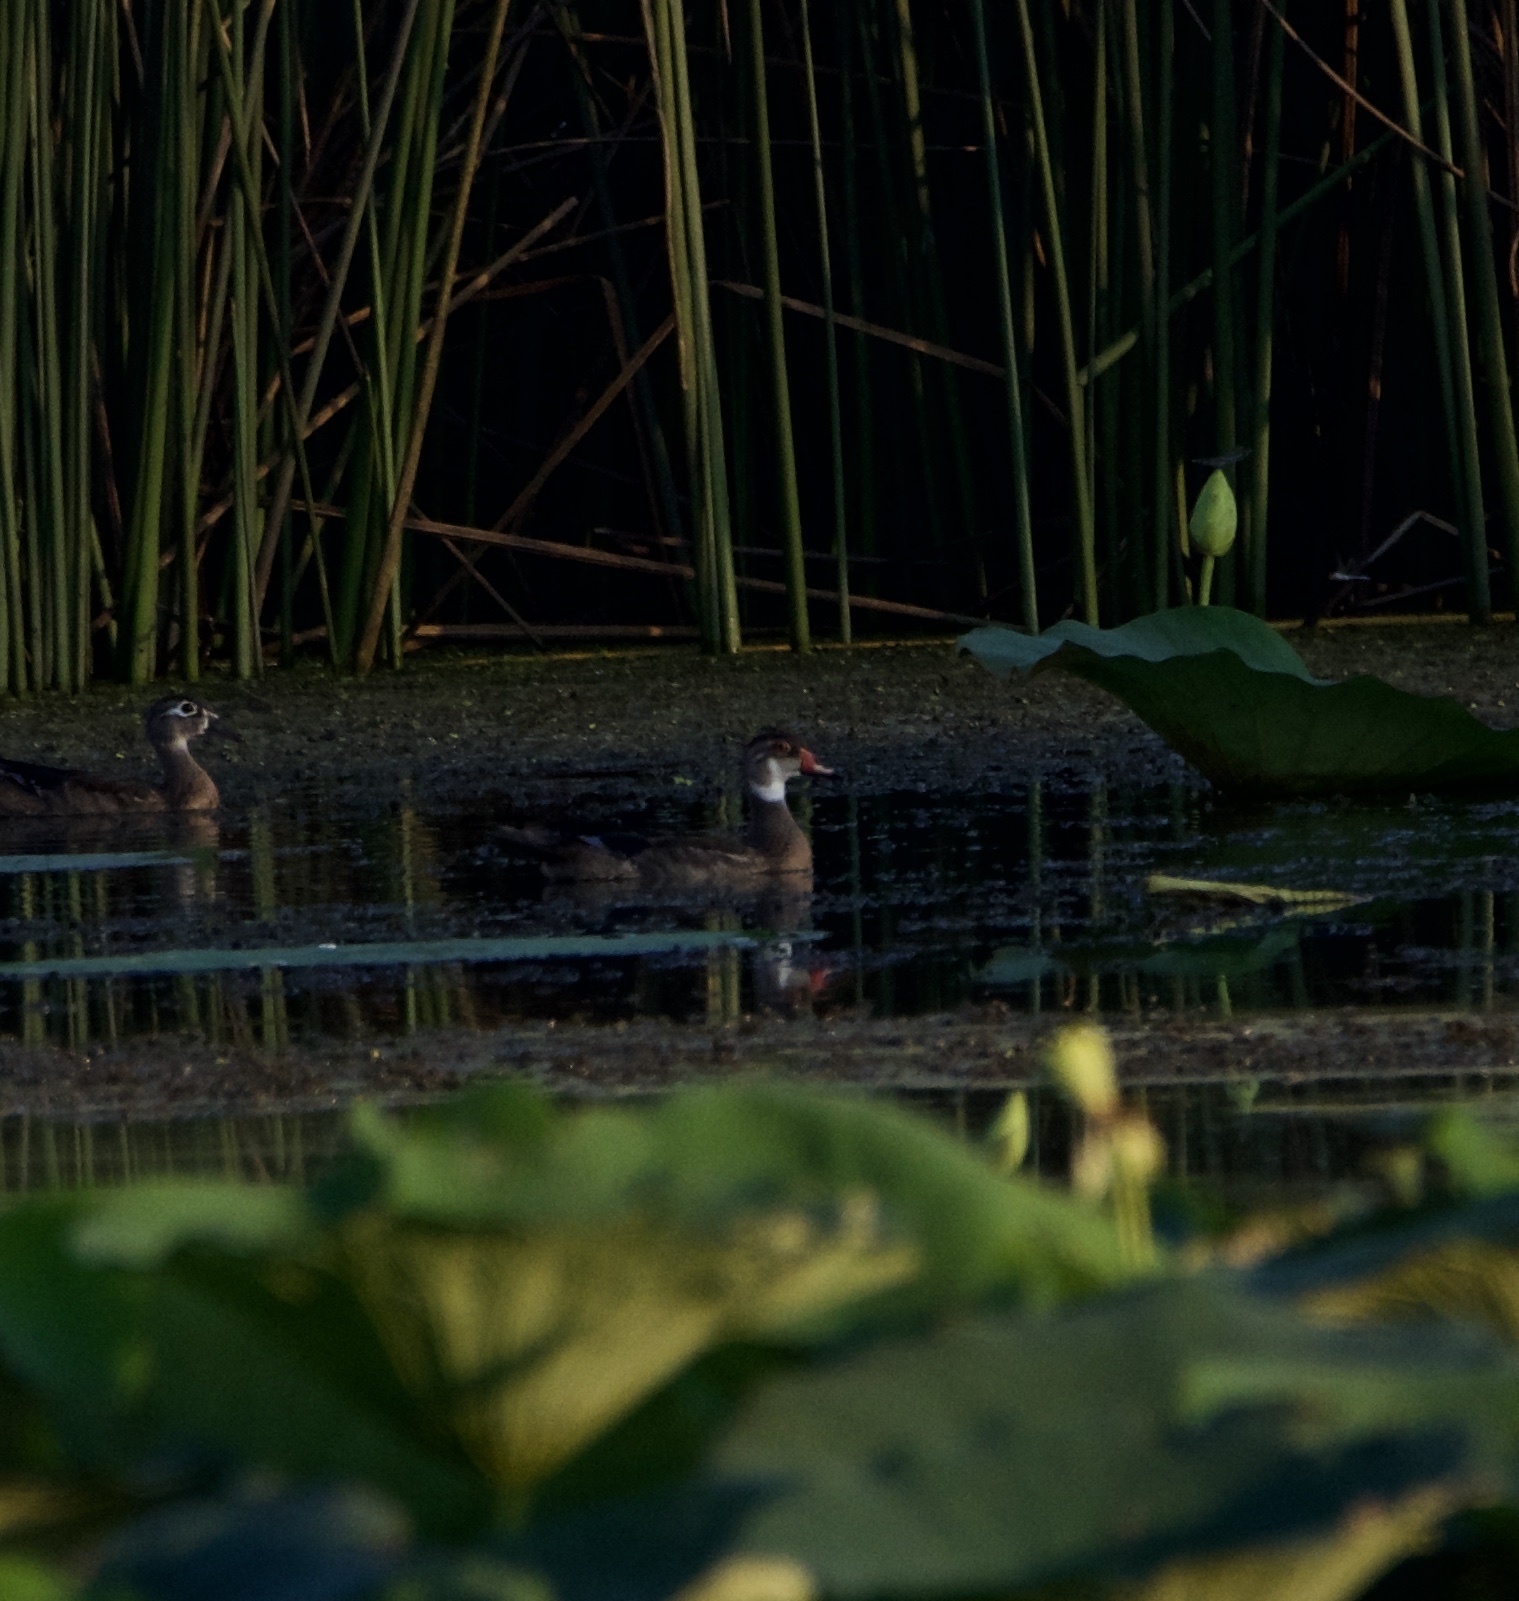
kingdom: Animalia
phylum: Chordata
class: Aves
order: Anseriformes
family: Anatidae
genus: Aix
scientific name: Aix sponsa
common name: Wood duck
